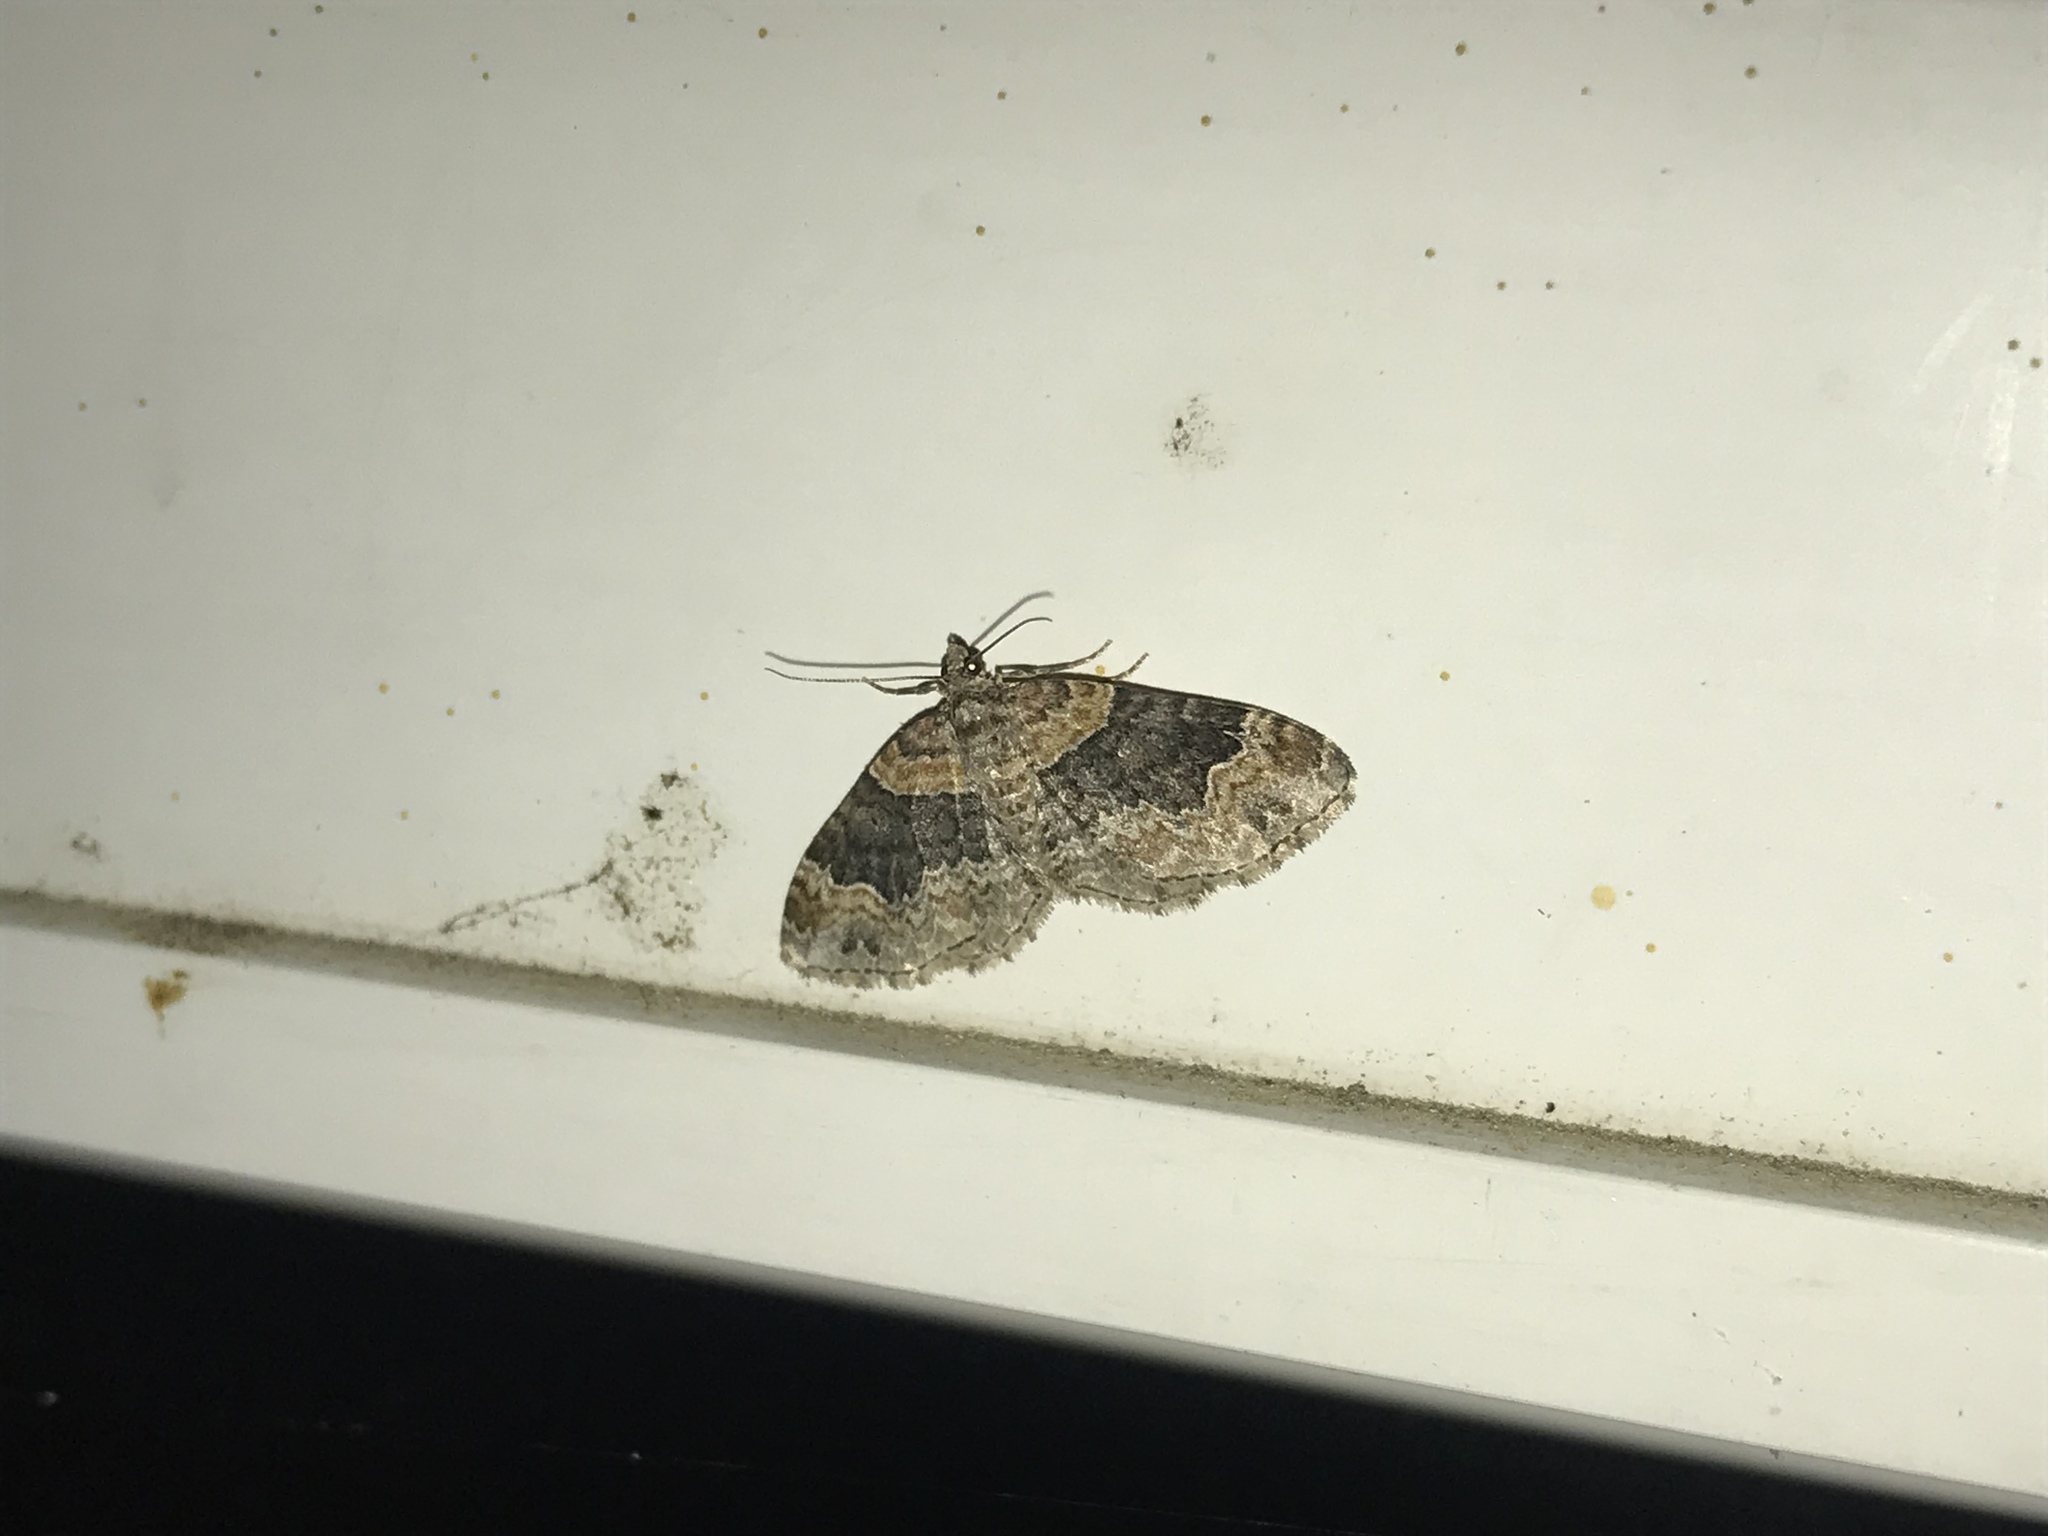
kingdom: Animalia
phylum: Arthropoda
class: Insecta
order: Lepidoptera
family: Geometridae
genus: Xanthorhoe
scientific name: Xanthorhoe ferrugata
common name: Dark-barred twin-spot carpet
